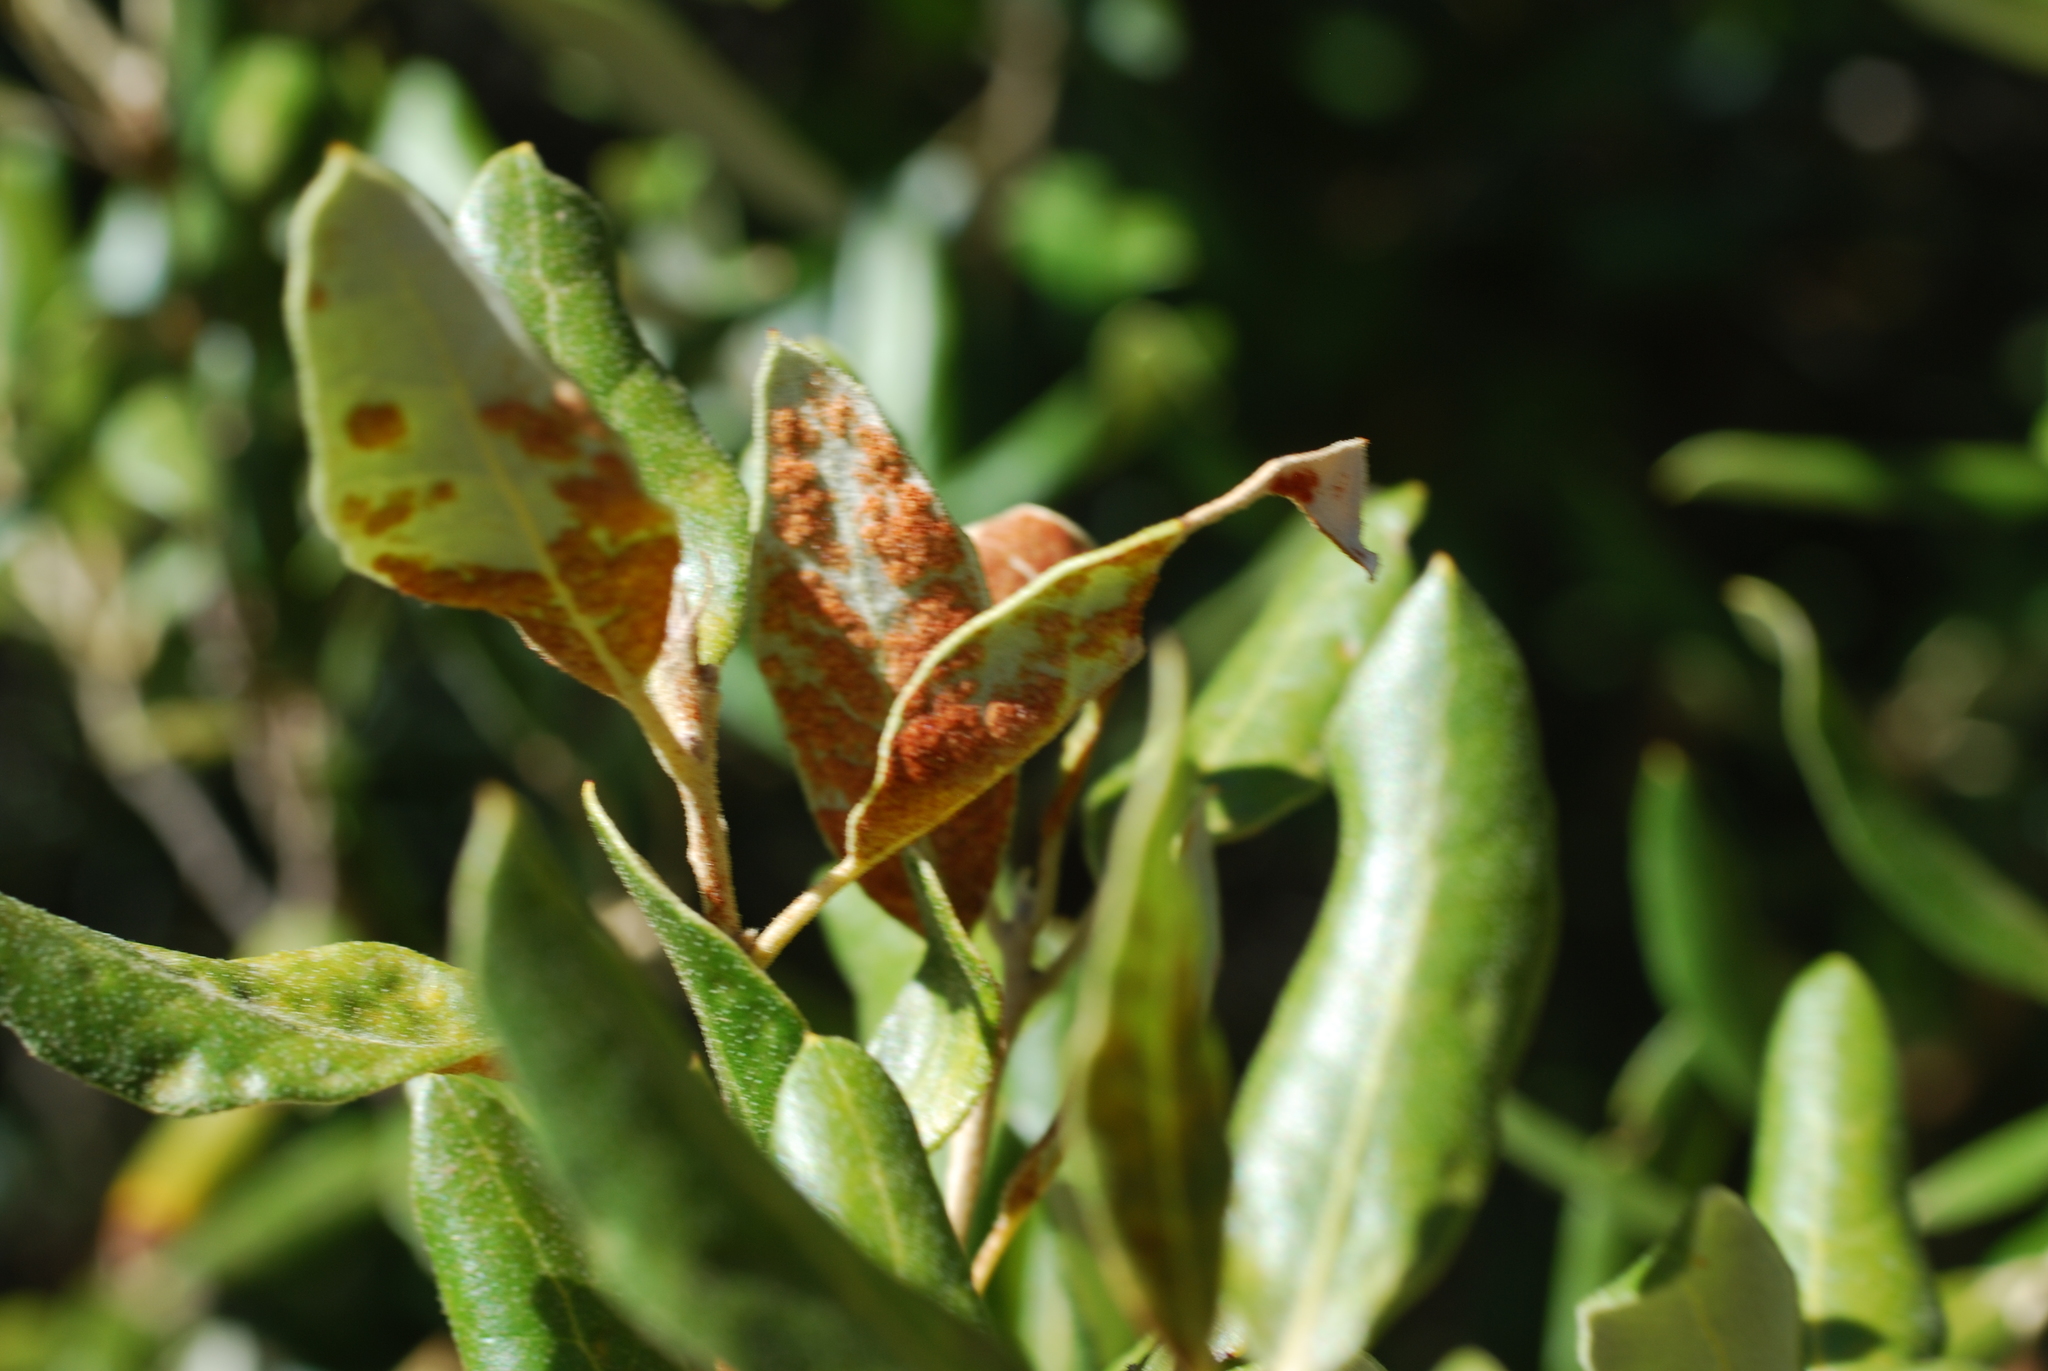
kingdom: Animalia
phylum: Arthropoda
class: Arachnida
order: Trombidiformes
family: Eriophyidae
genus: Aceria
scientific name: Aceria ilicis
